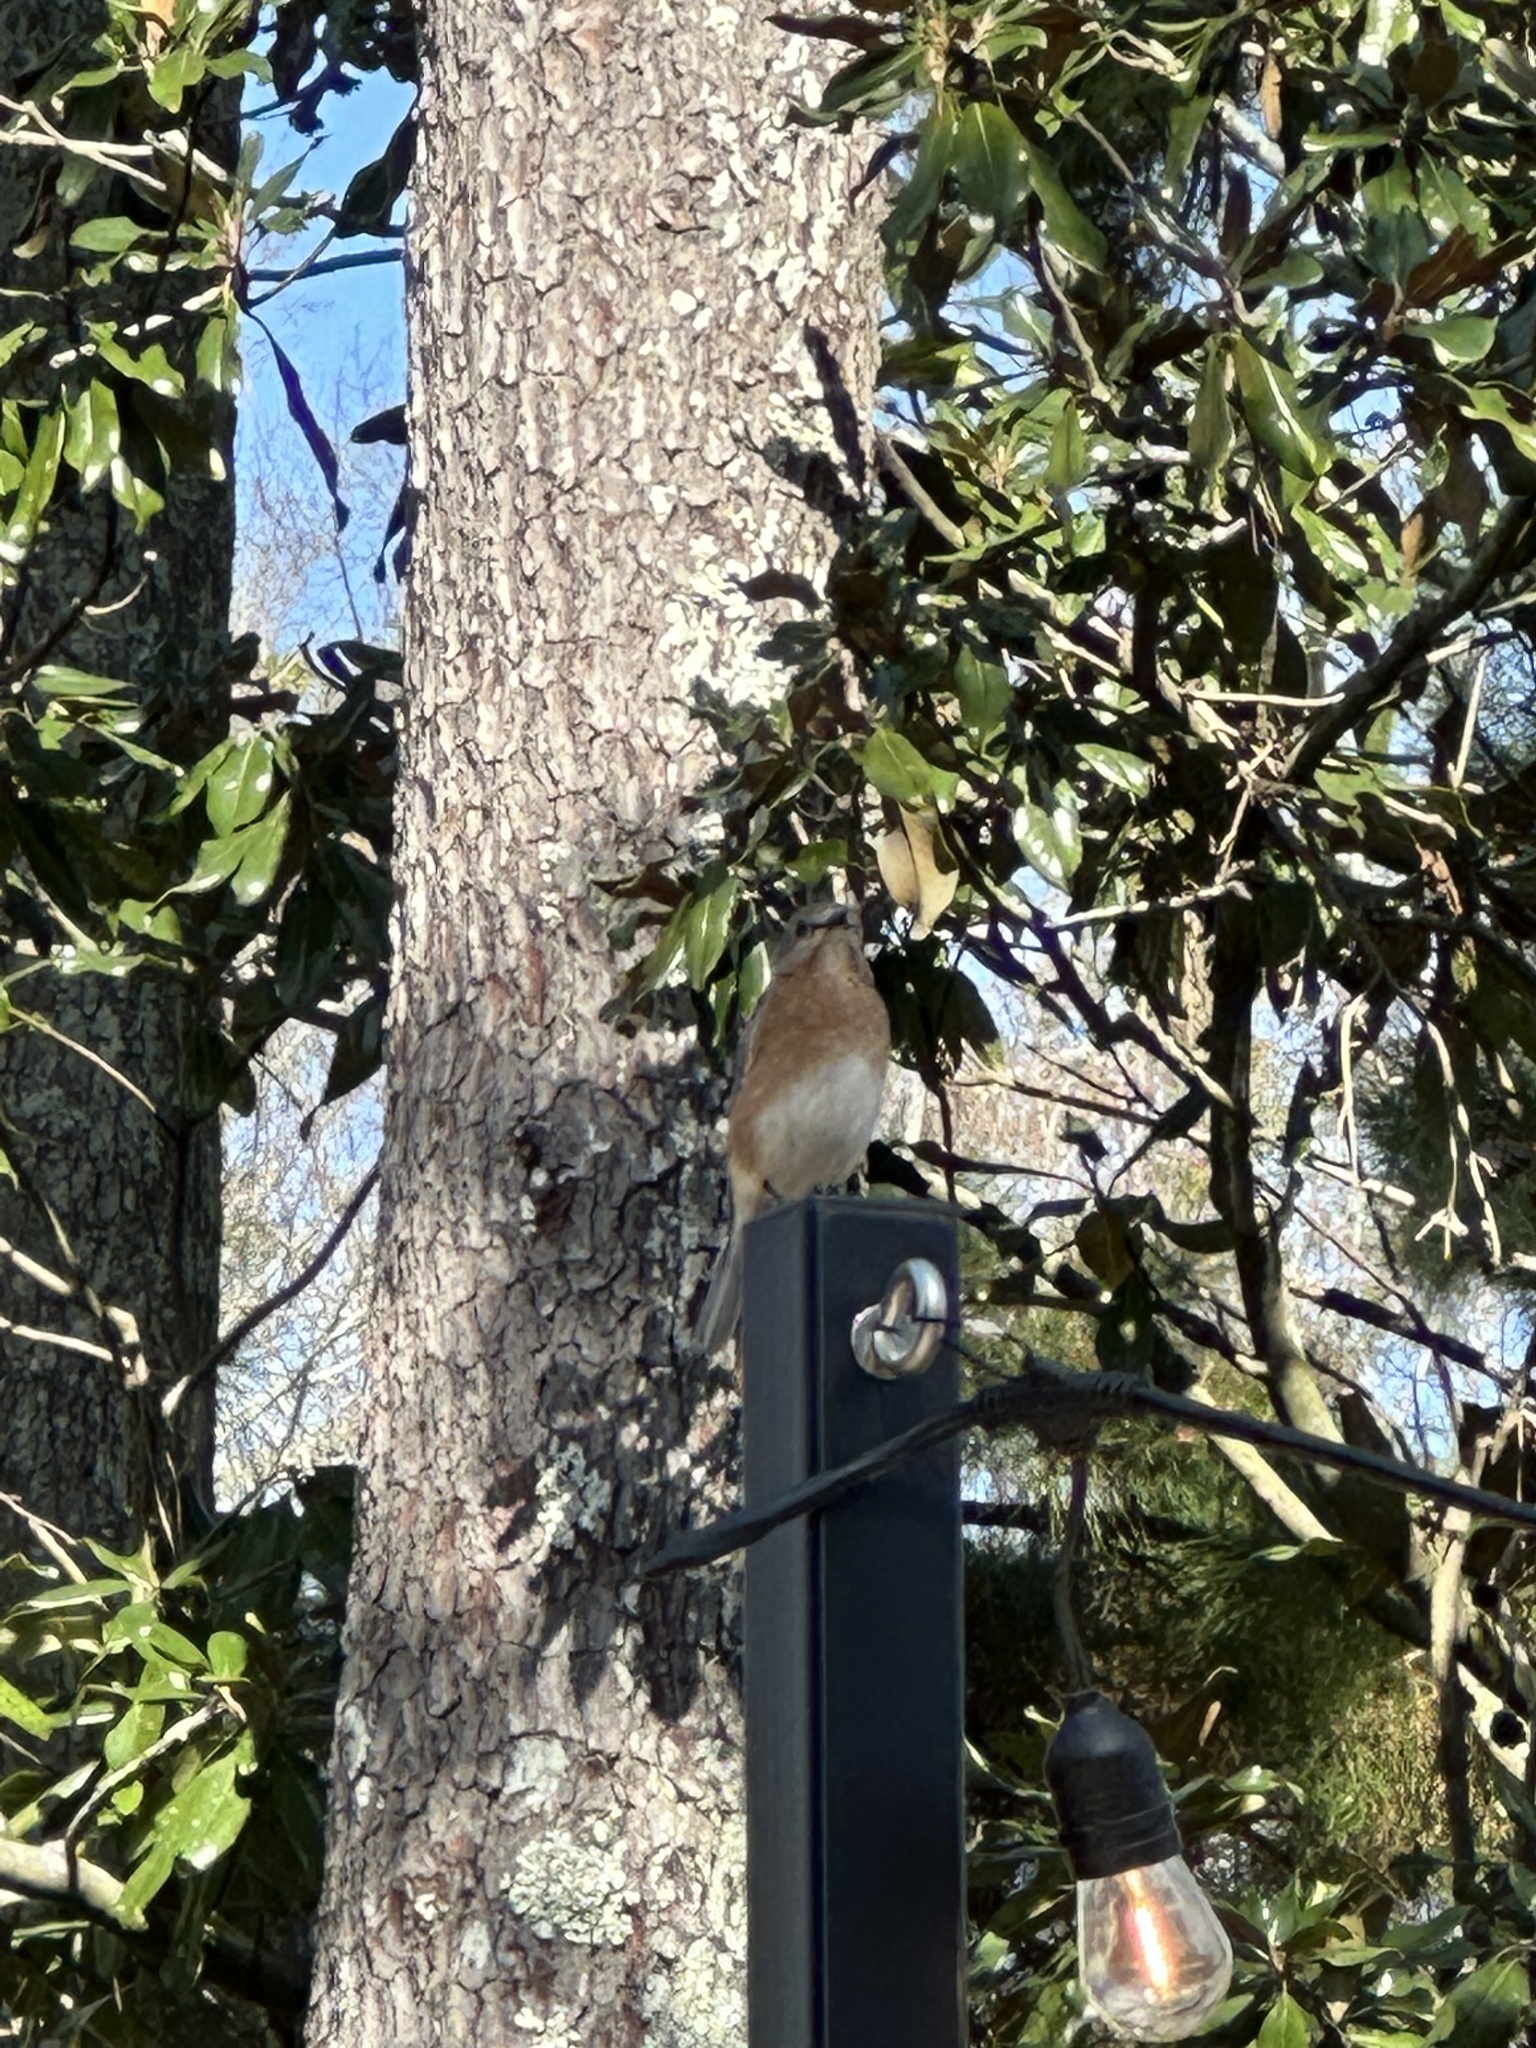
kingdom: Animalia
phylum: Chordata
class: Aves
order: Passeriformes
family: Turdidae
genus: Sialia
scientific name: Sialia sialis
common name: Eastern bluebird
